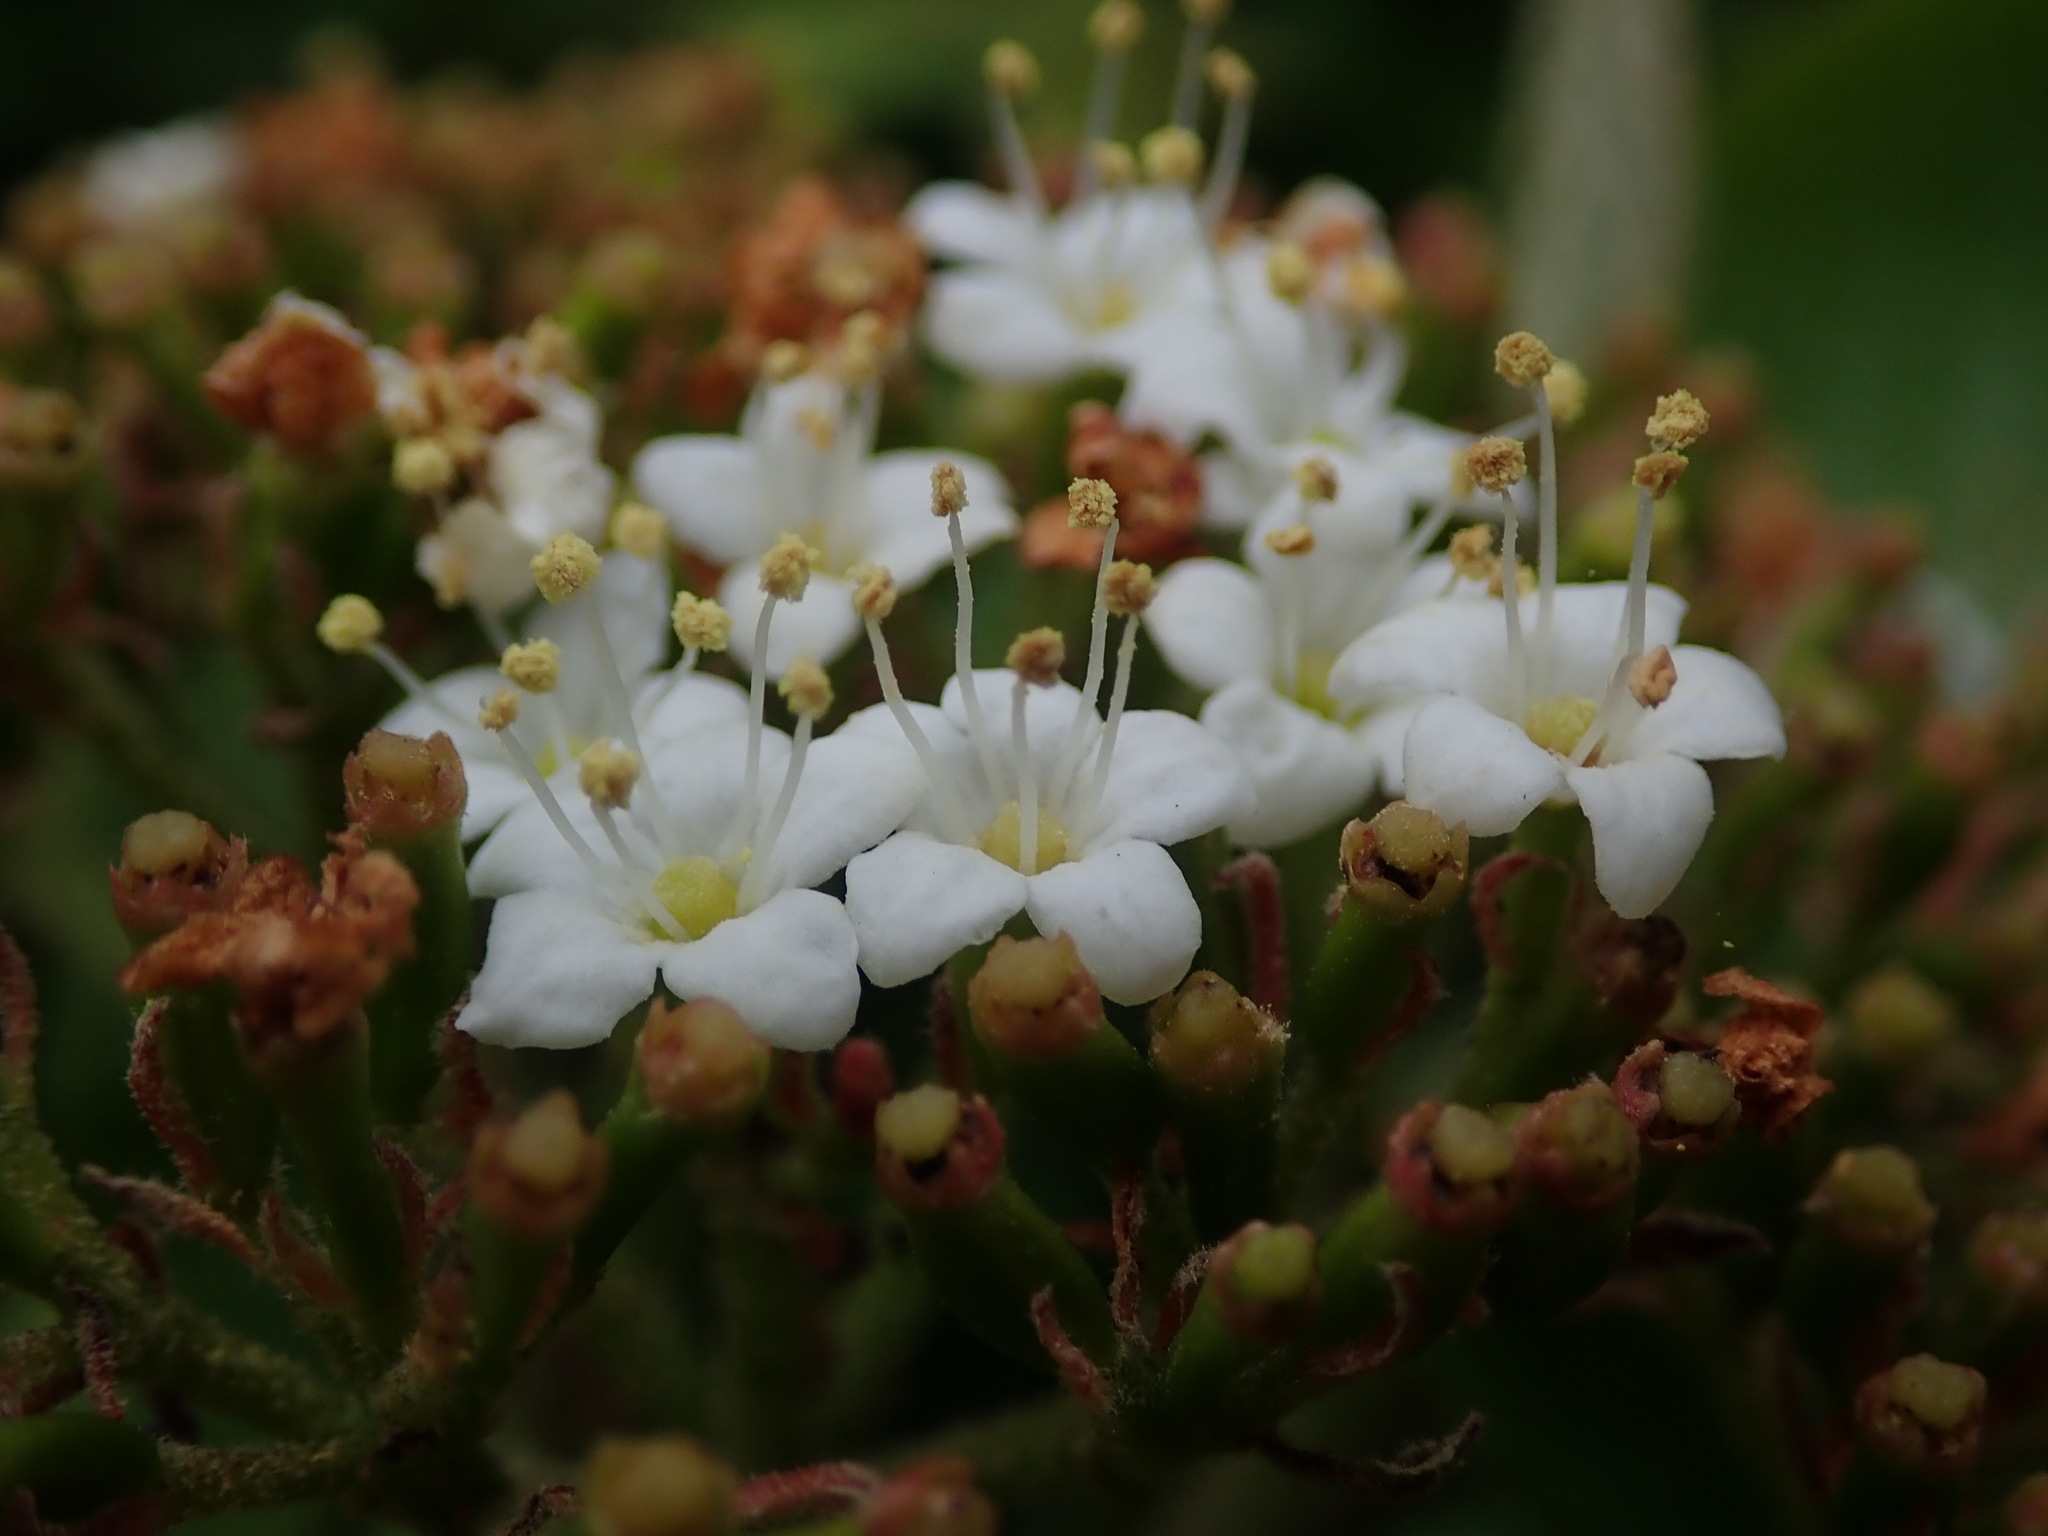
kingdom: Plantae
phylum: Tracheophyta
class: Magnoliopsida
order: Dipsacales
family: Viburnaceae
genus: Viburnum
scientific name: Viburnum lantana
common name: Wayfaring tree
